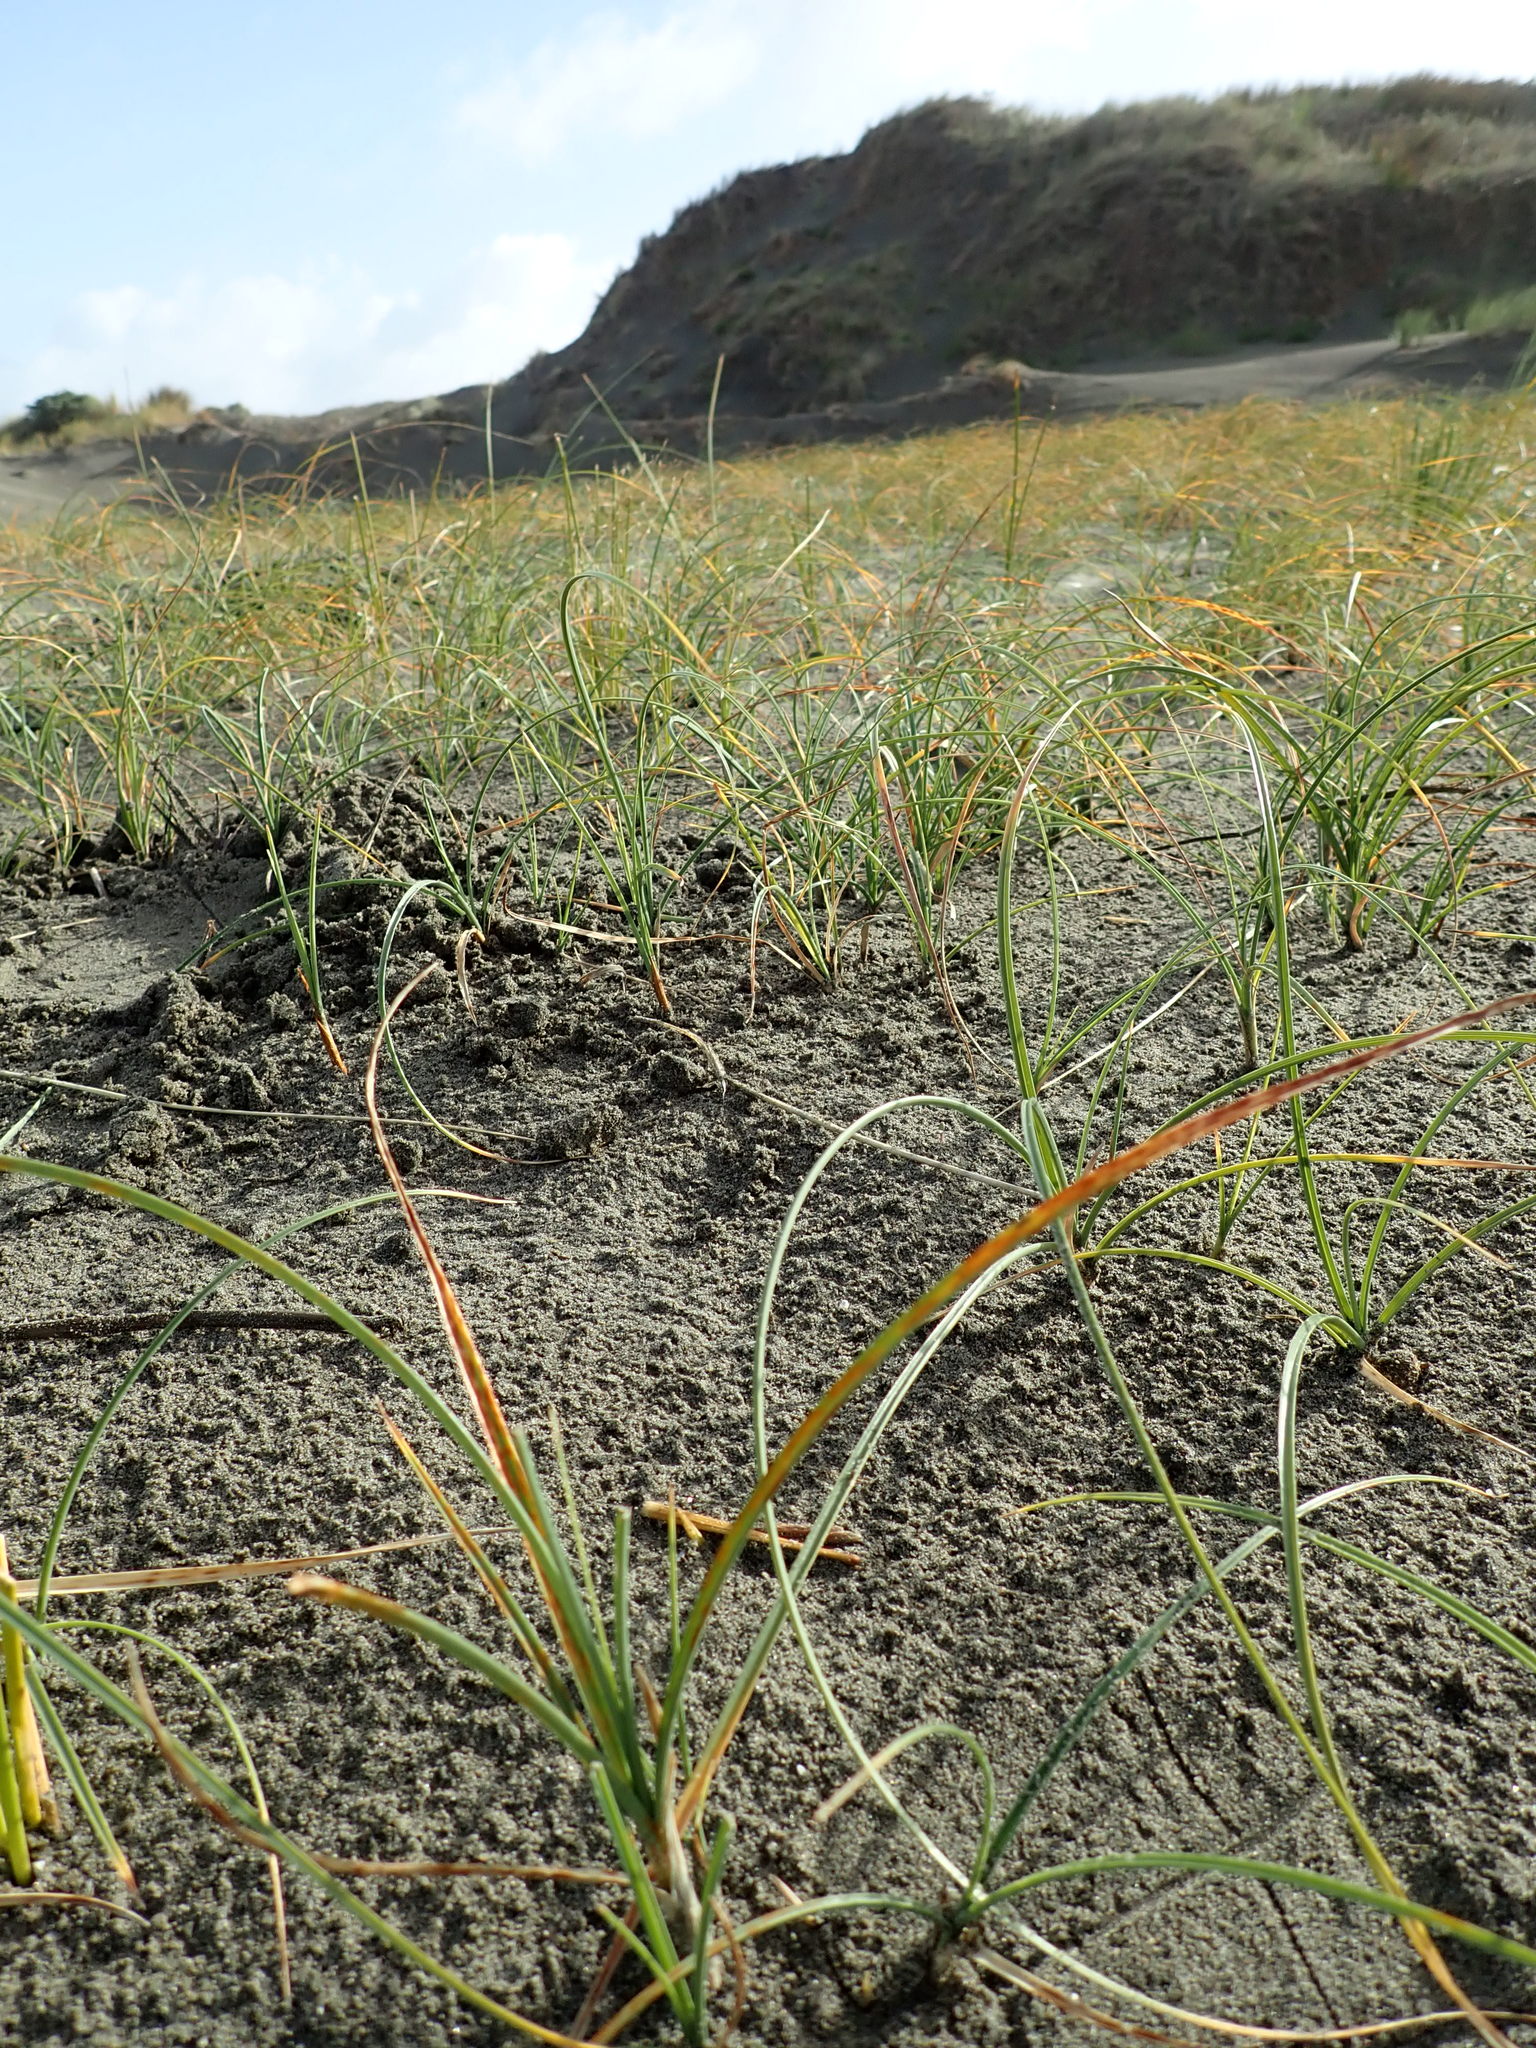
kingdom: Plantae
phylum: Tracheophyta
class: Liliopsida
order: Poales
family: Cyperaceae
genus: Carex
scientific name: Carex pumila
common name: Dwarf sedge
